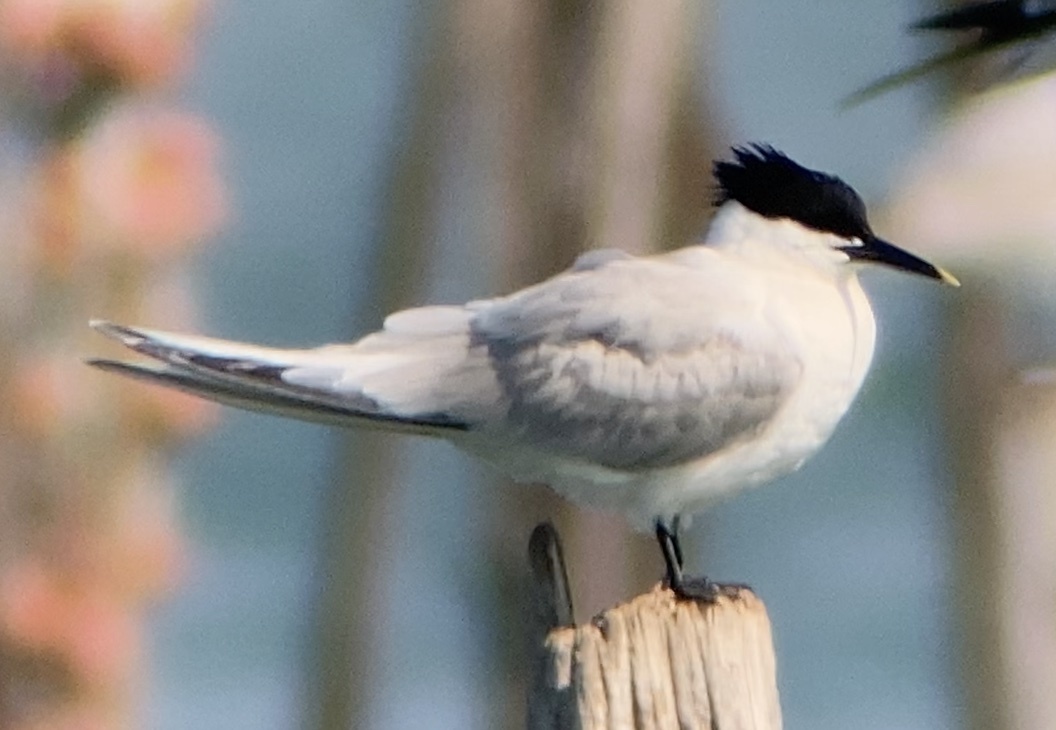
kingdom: Animalia
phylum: Chordata
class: Aves
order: Charadriiformes
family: Laridae
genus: Thalasseus
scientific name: Thalasseus sandvicensis
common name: Sandwich tern
